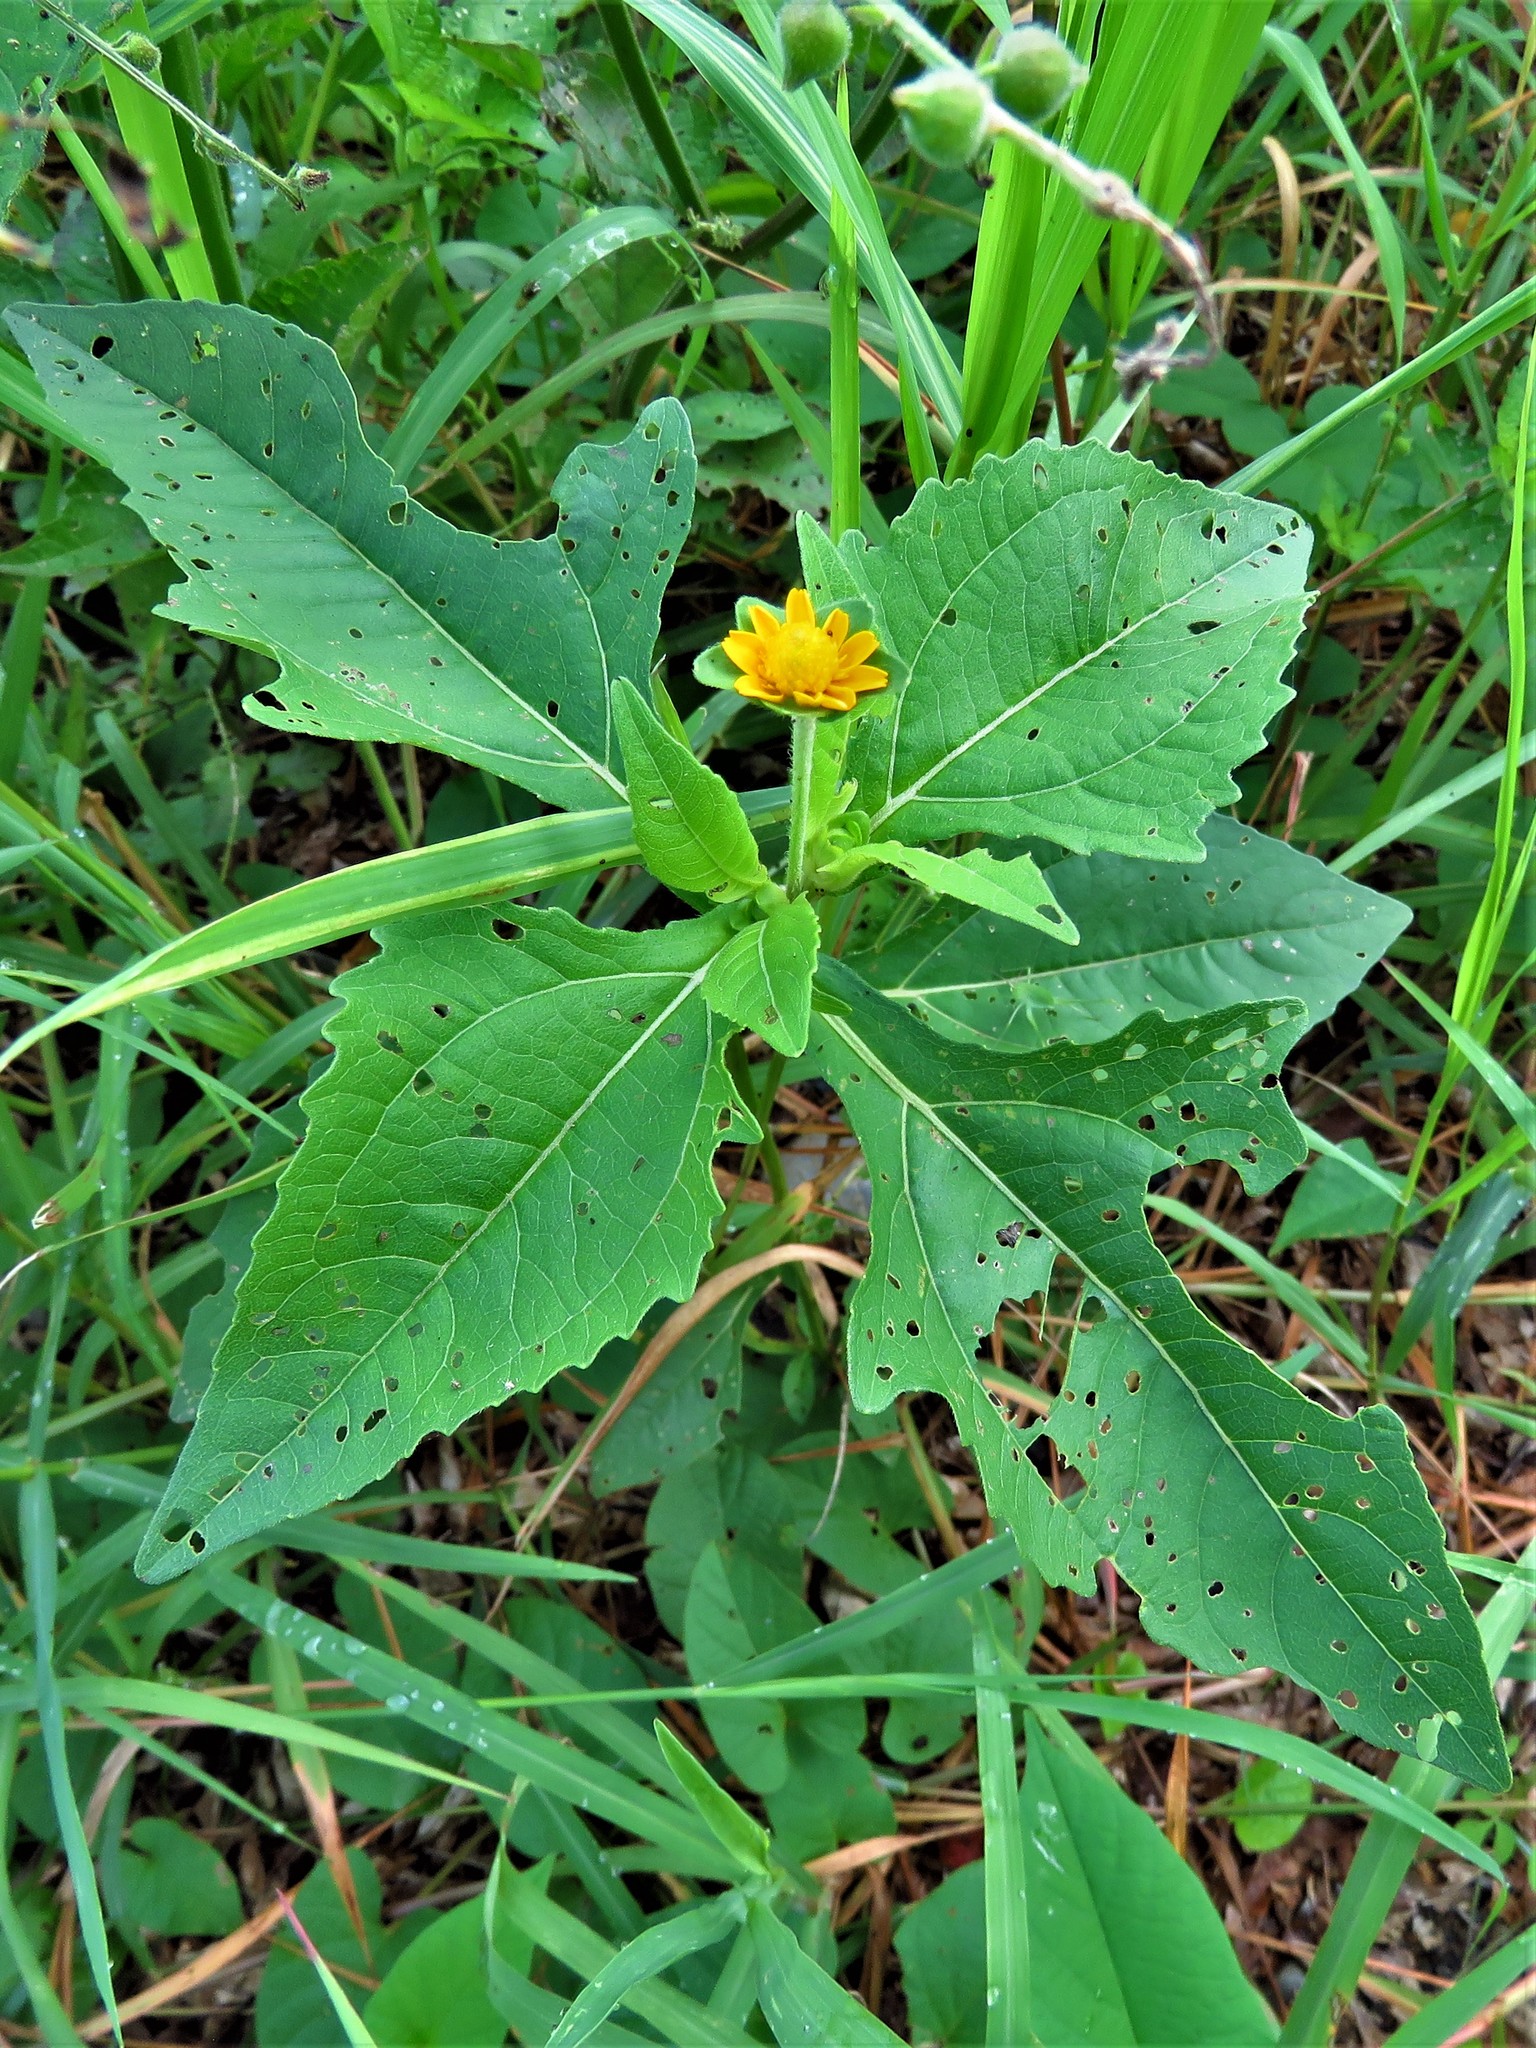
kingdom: Plantae
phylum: Tracheophyta
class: Magnoliopsida
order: Asterales
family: Asteraceae
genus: Melampodium
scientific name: Melampodium perfoliatum
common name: Perfoliate blackfoot
